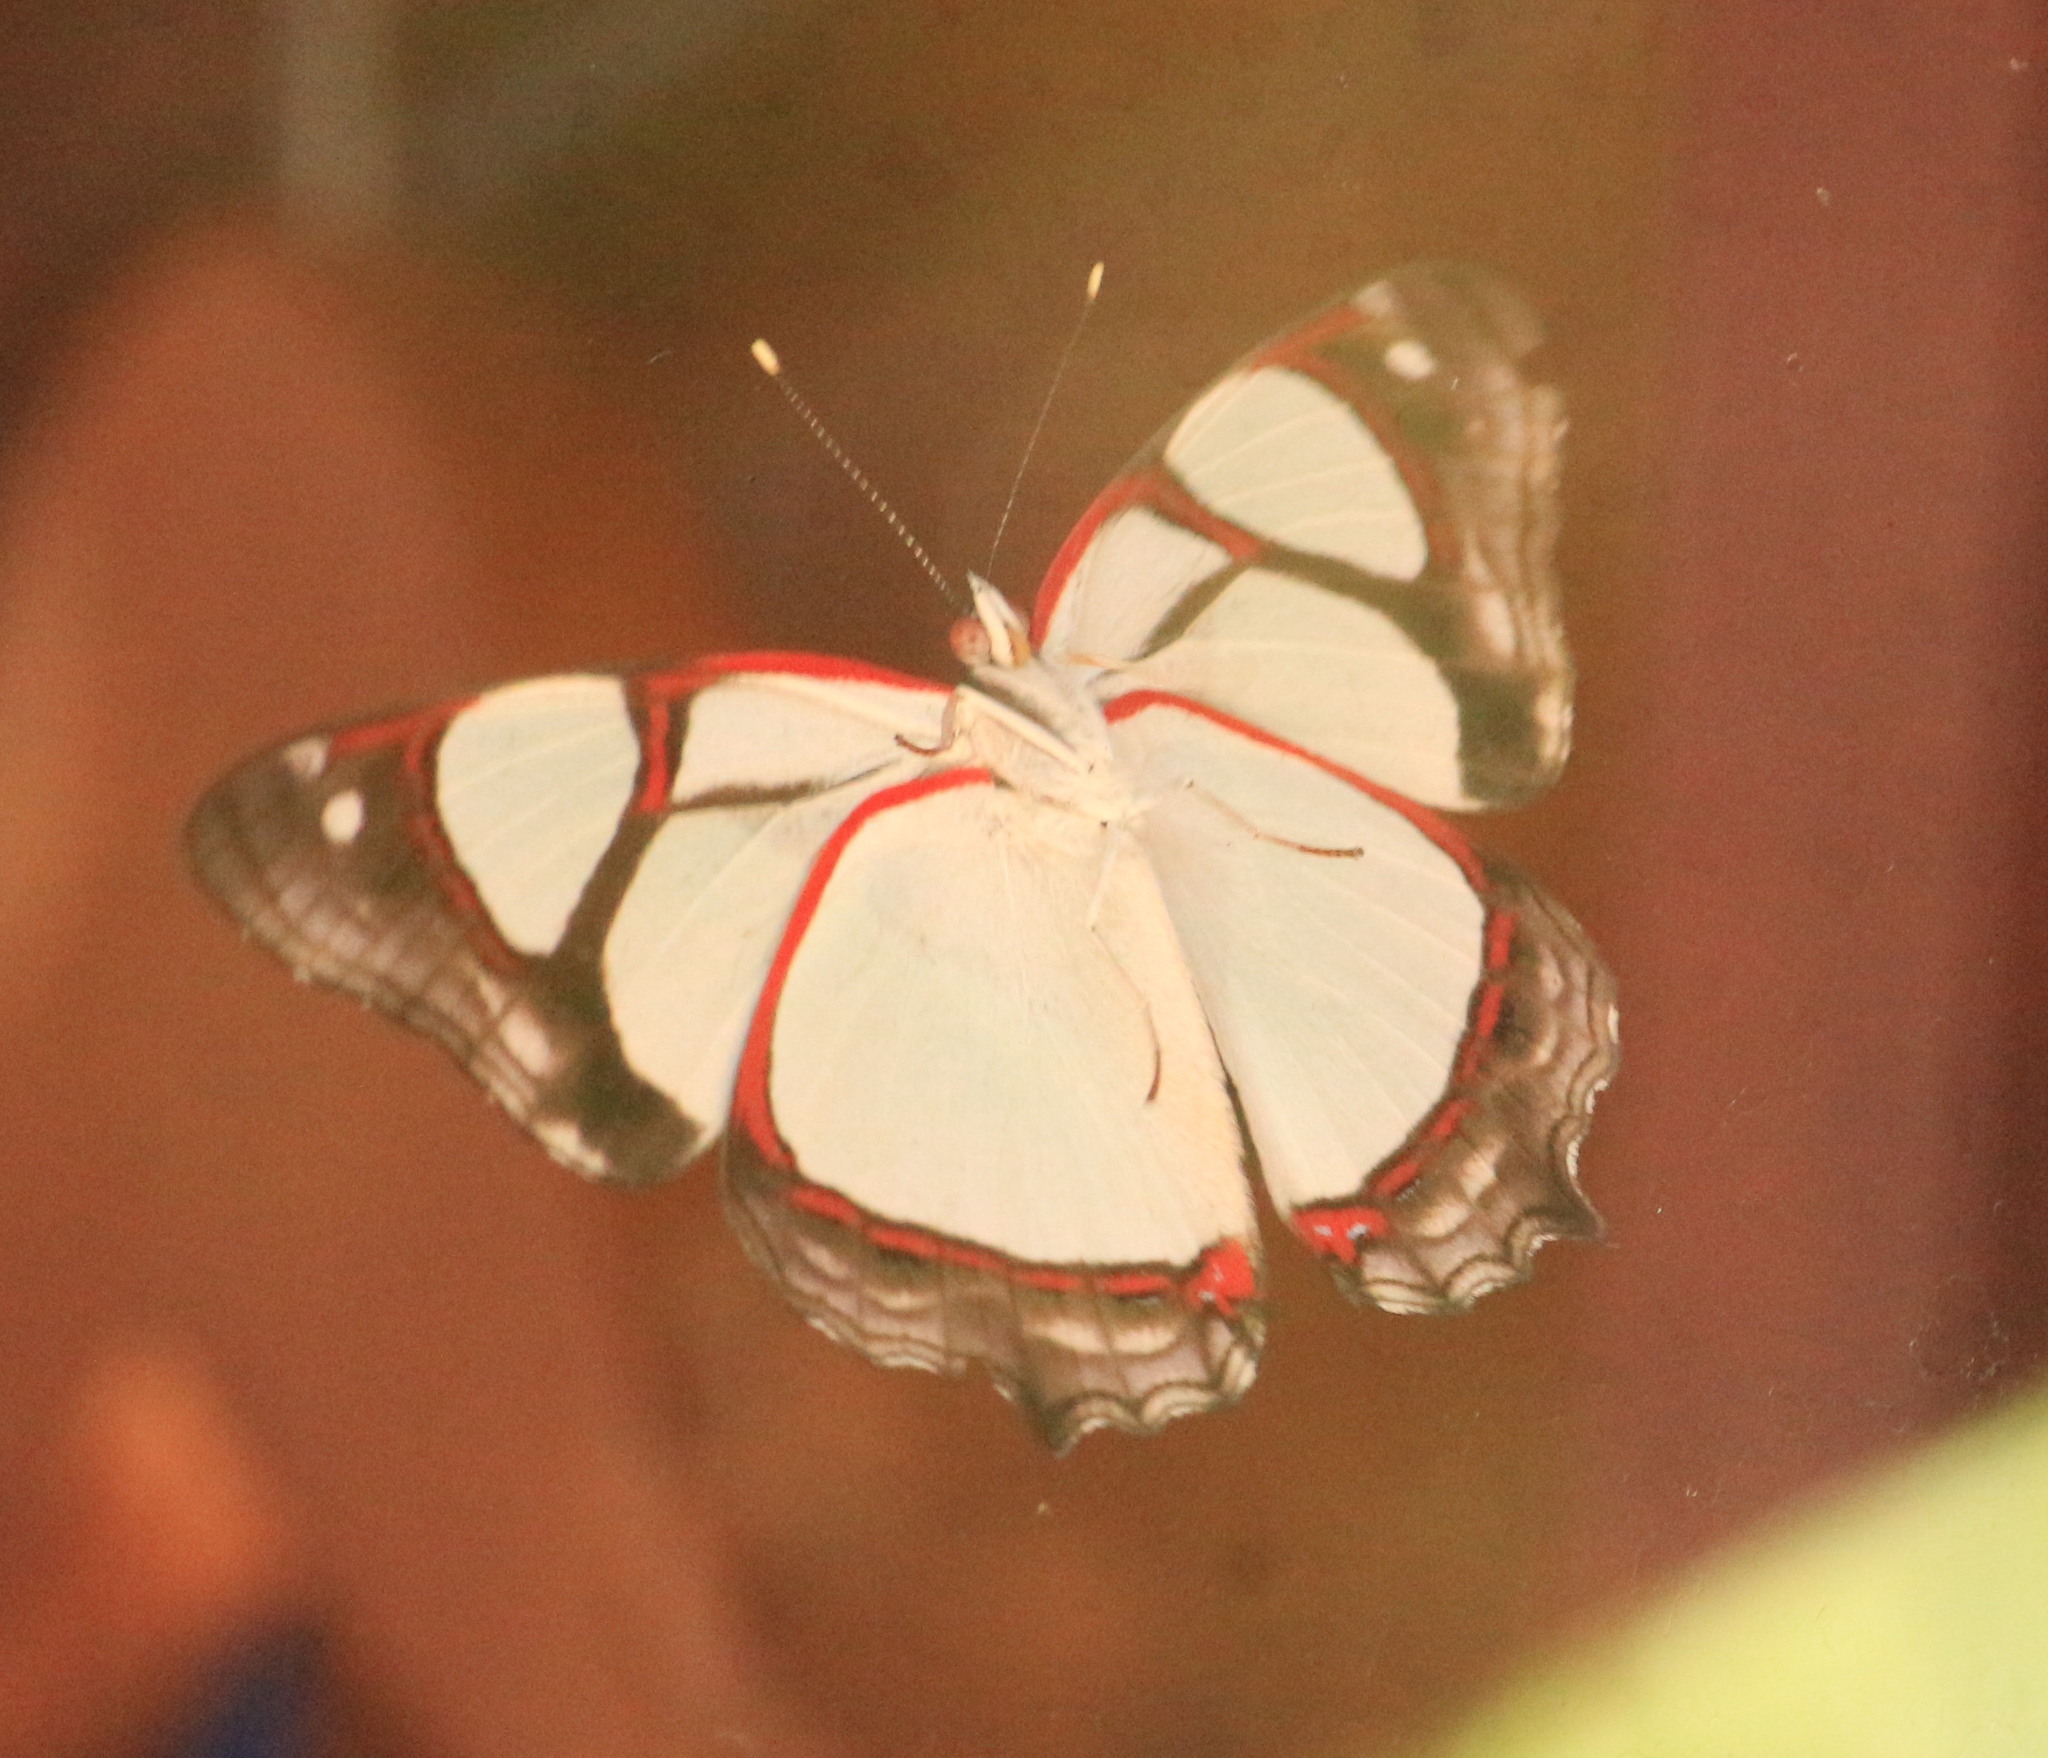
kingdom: Animalia
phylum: Arthropoda
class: Insecta
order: Lepidoptera
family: Nymphalidae
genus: Pyrrhogyra
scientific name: Pyrrhogyra neaerea
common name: Leading red-ring
